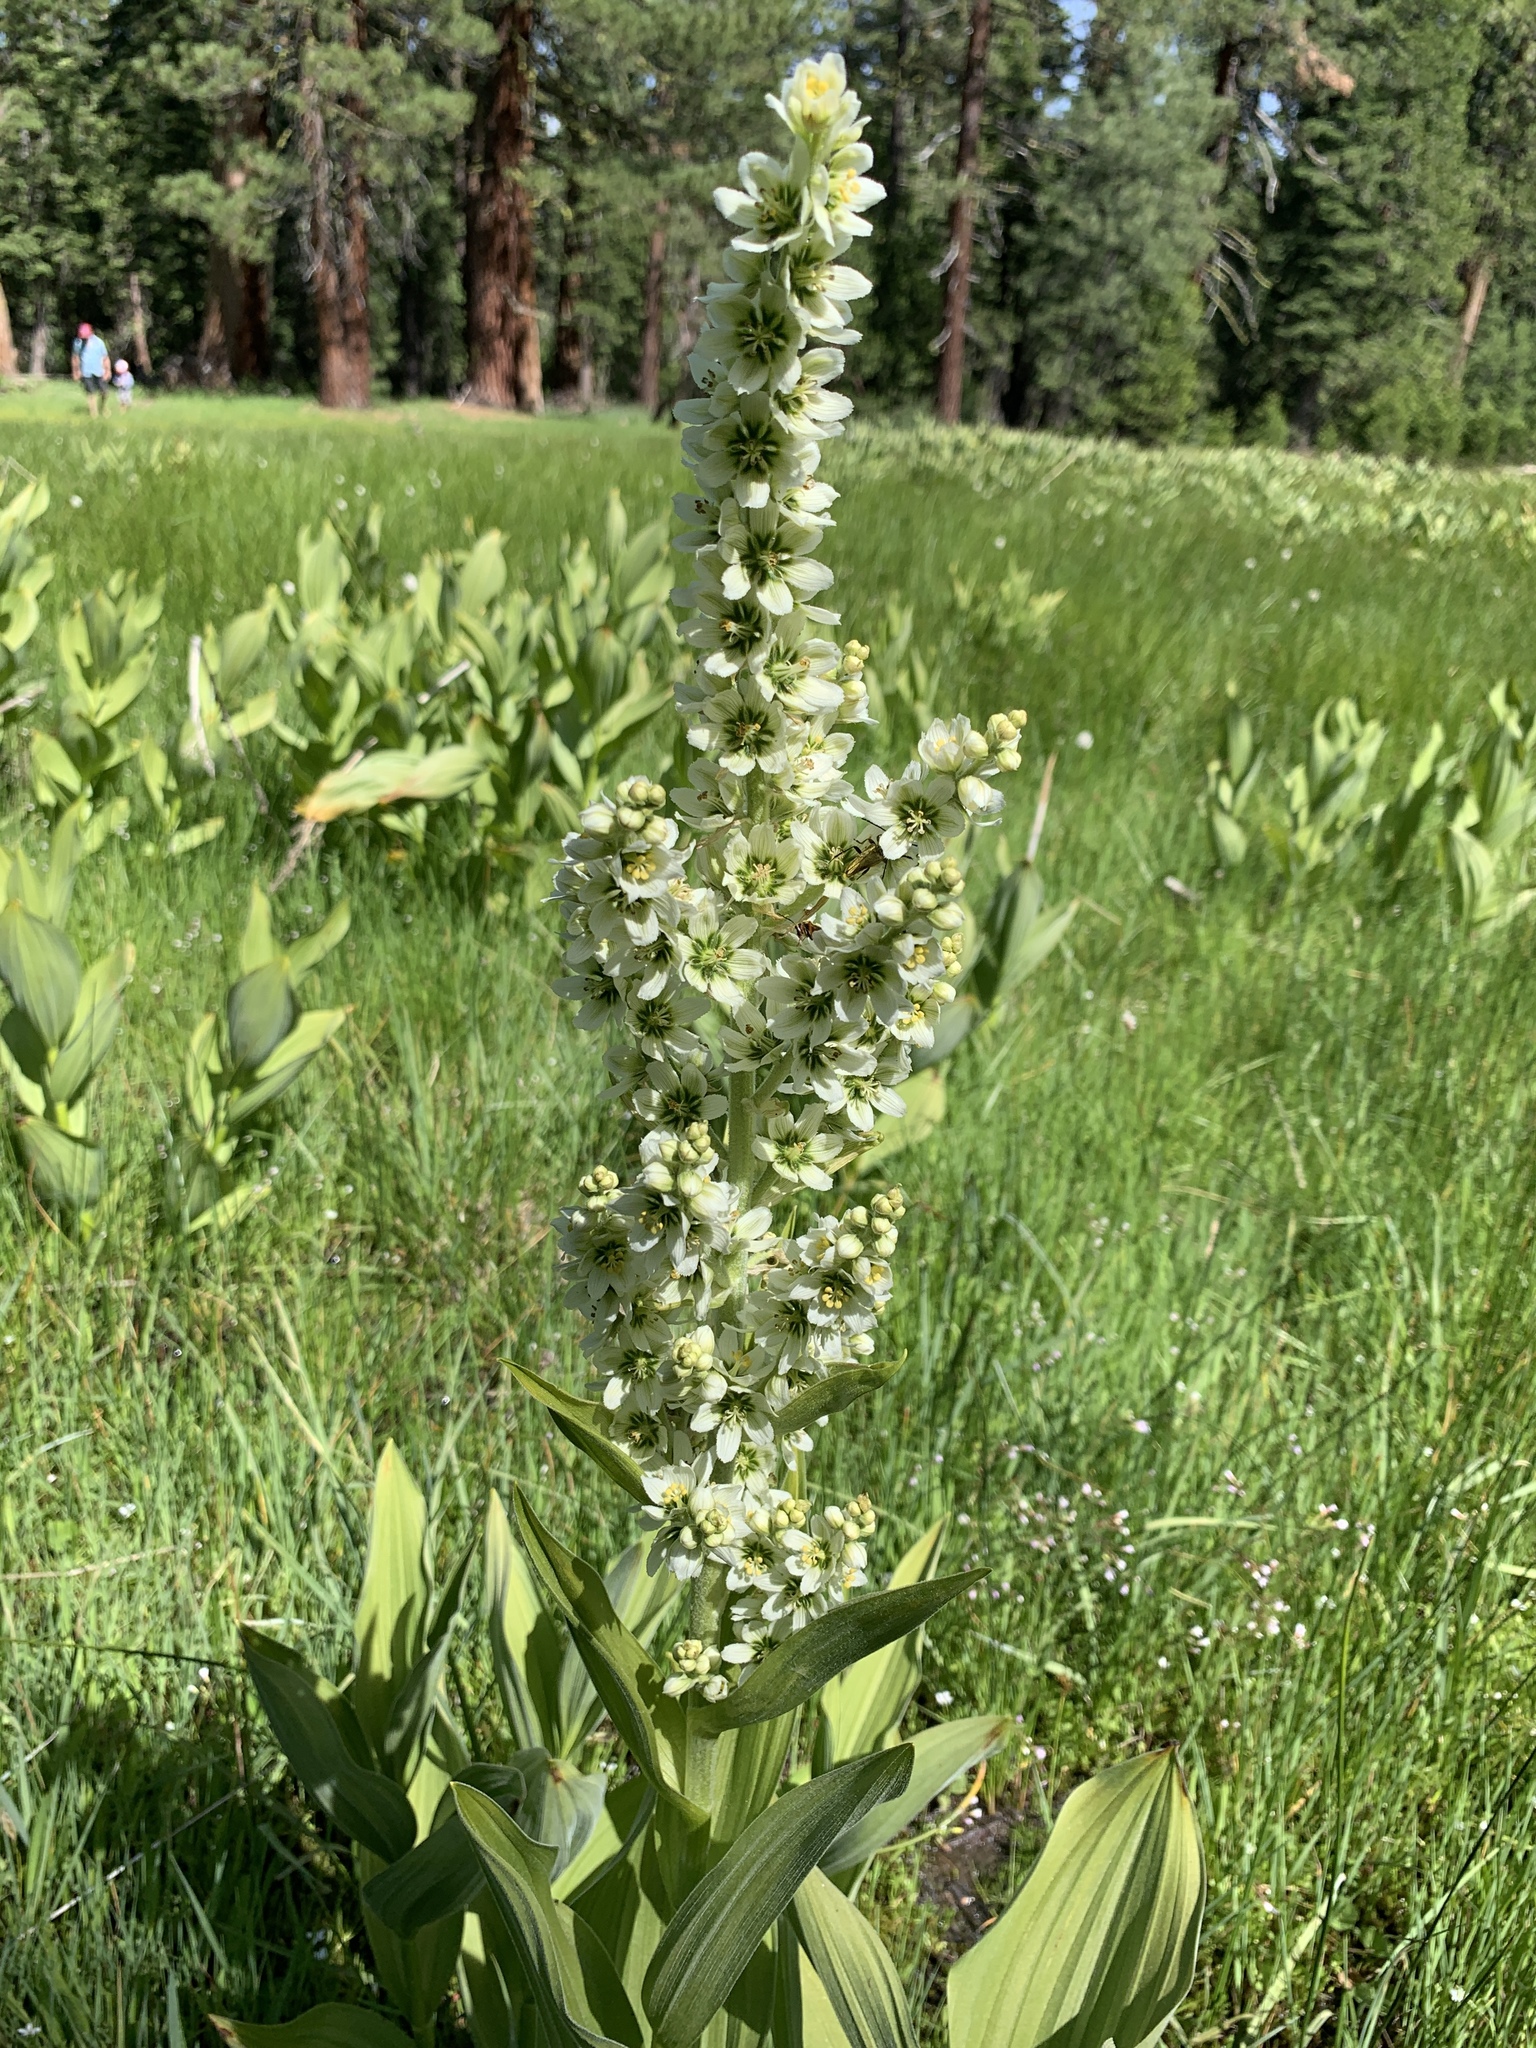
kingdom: Plantae
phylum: Tracheophyta
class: Liliopsida
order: Liliales
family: Melanthiaceae
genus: Veratrum
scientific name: Veratrum californicum
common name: California veratrum
